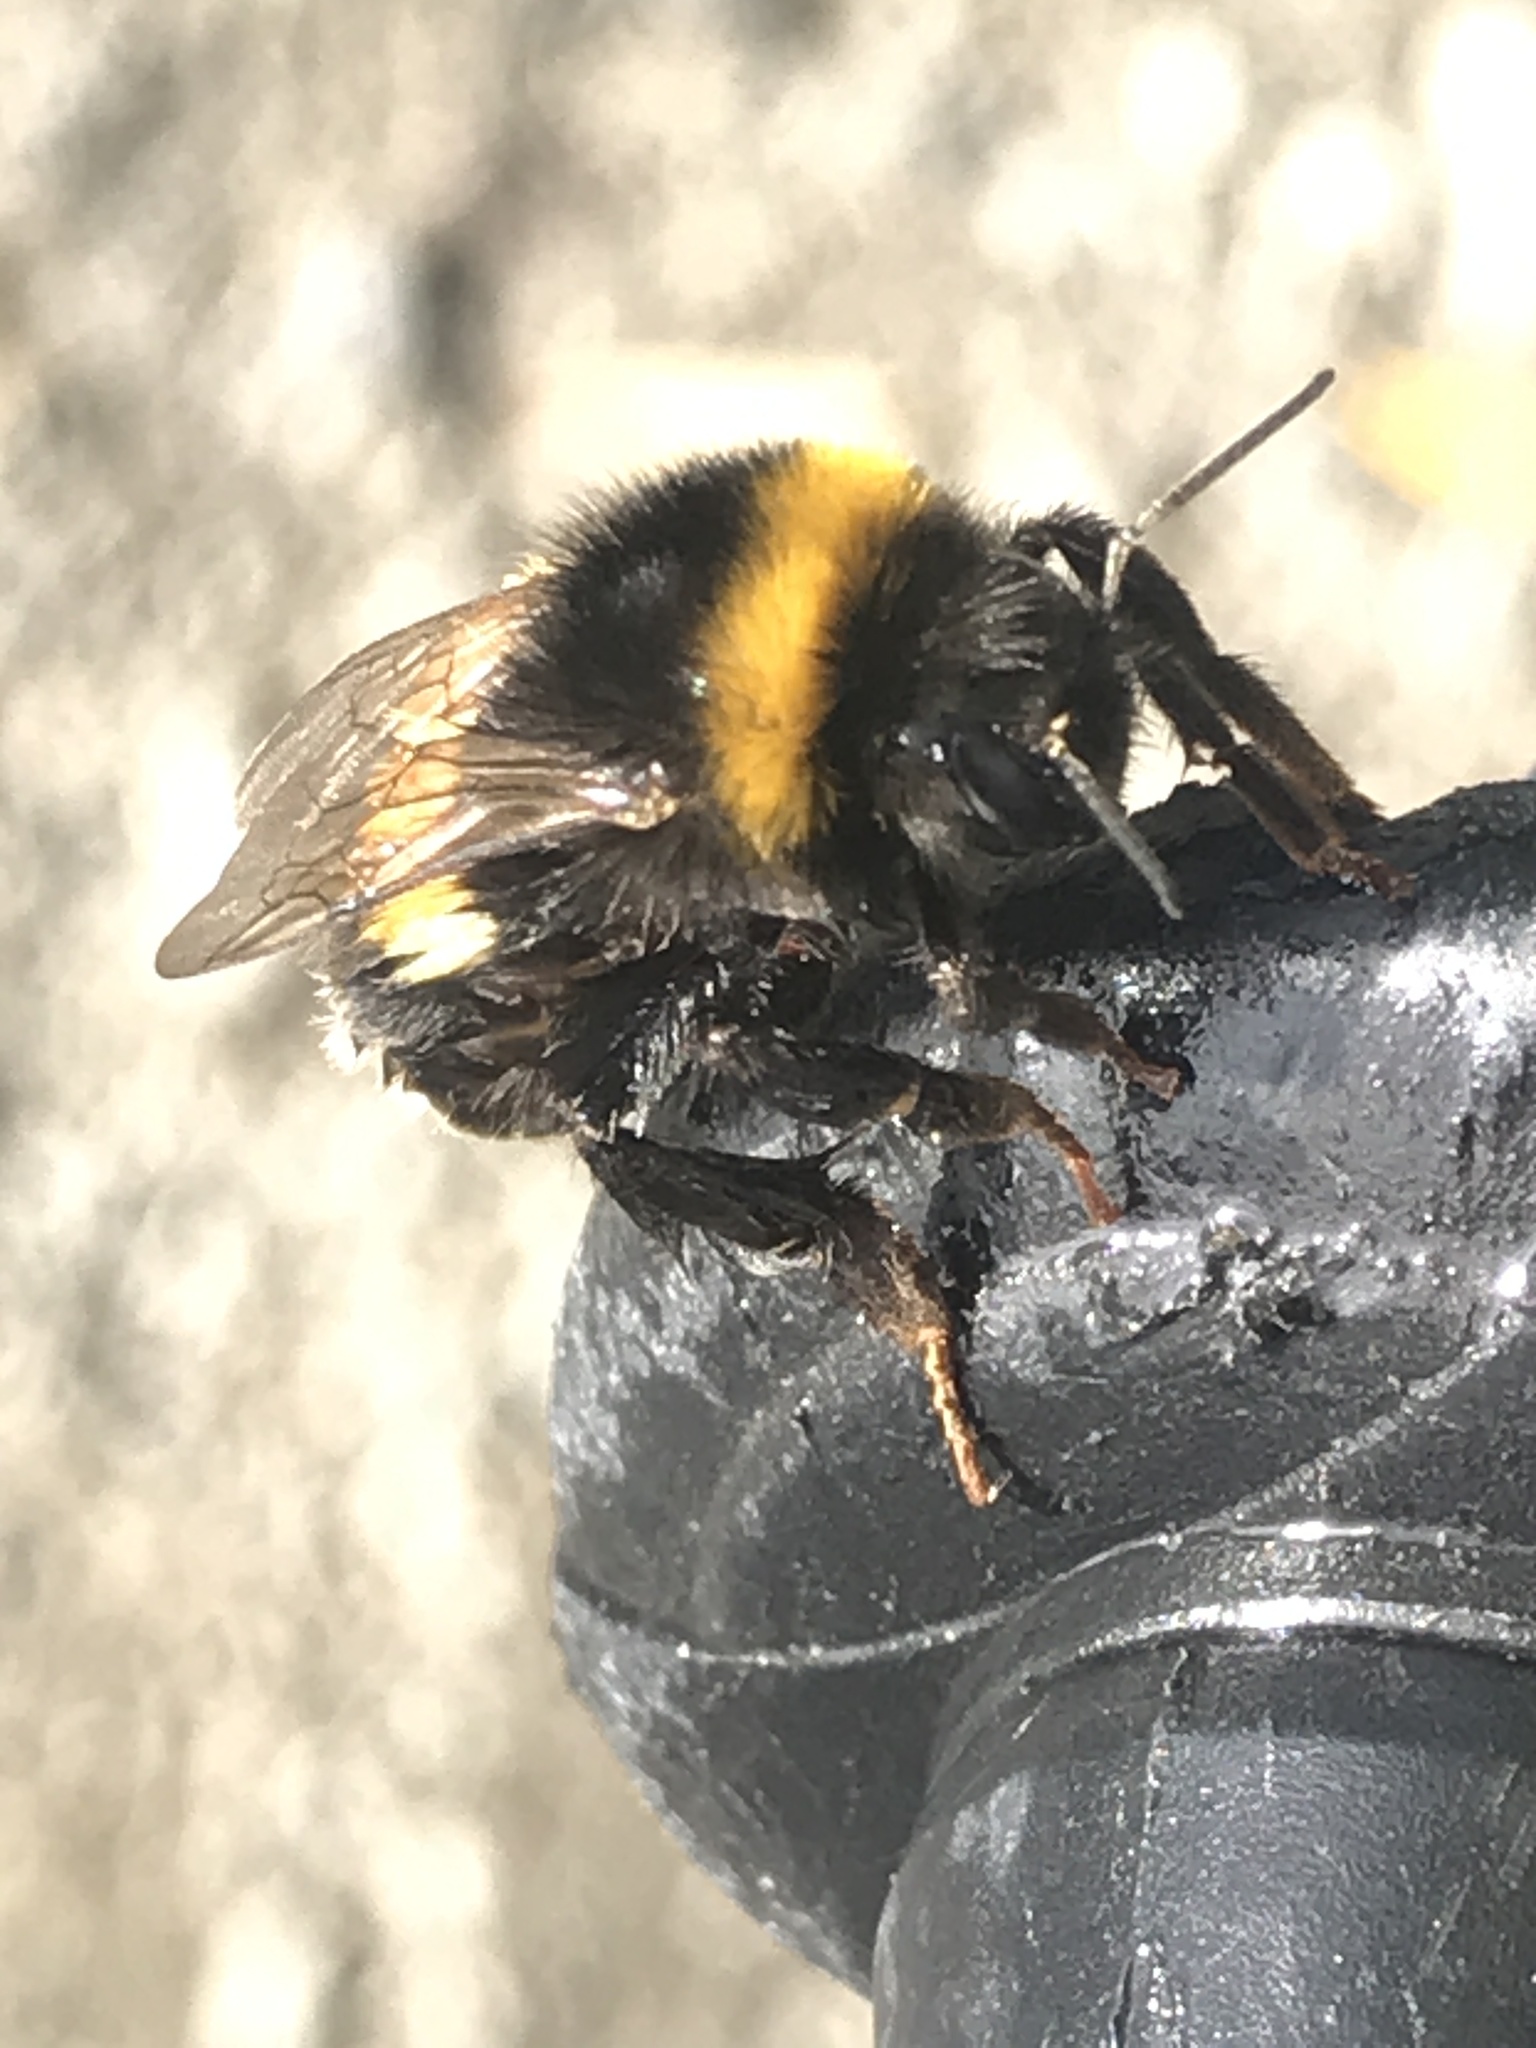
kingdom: Animalia
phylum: Arthropoda
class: Insecta
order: Hymenoptera
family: Apidae
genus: Bombus
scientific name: Bombus terrestris
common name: Buff-tailed bumblebee
